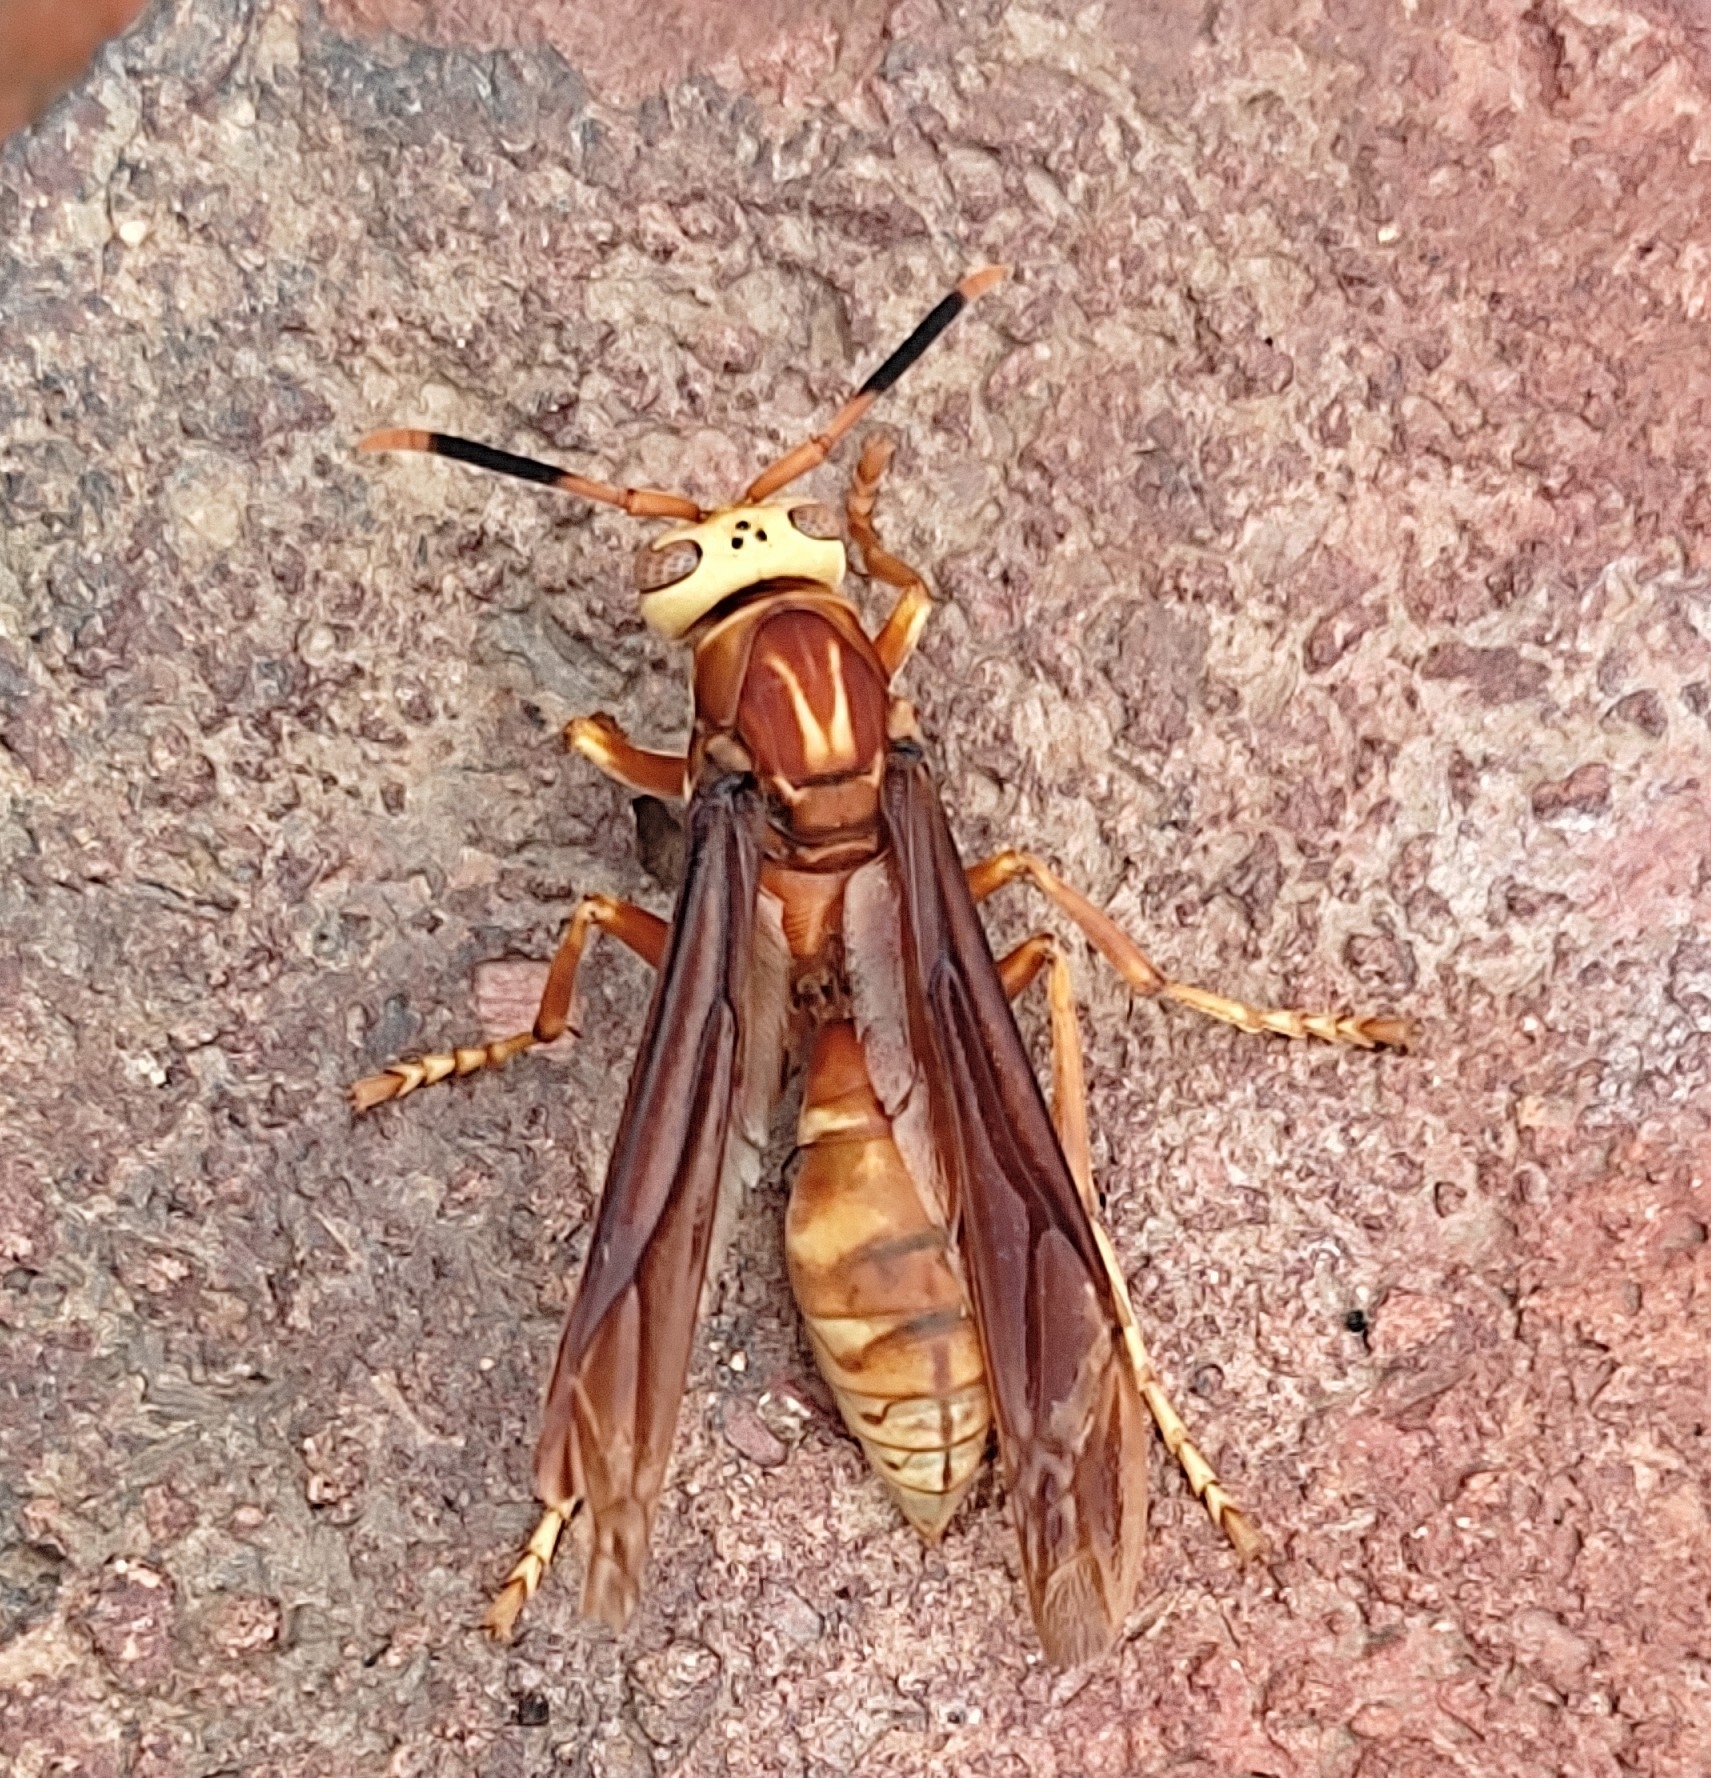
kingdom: Animalia
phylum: Arthropoda
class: Insecta
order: Hymenoptera
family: Eumenidae
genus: Polistes
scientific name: Polistes cavapyta
